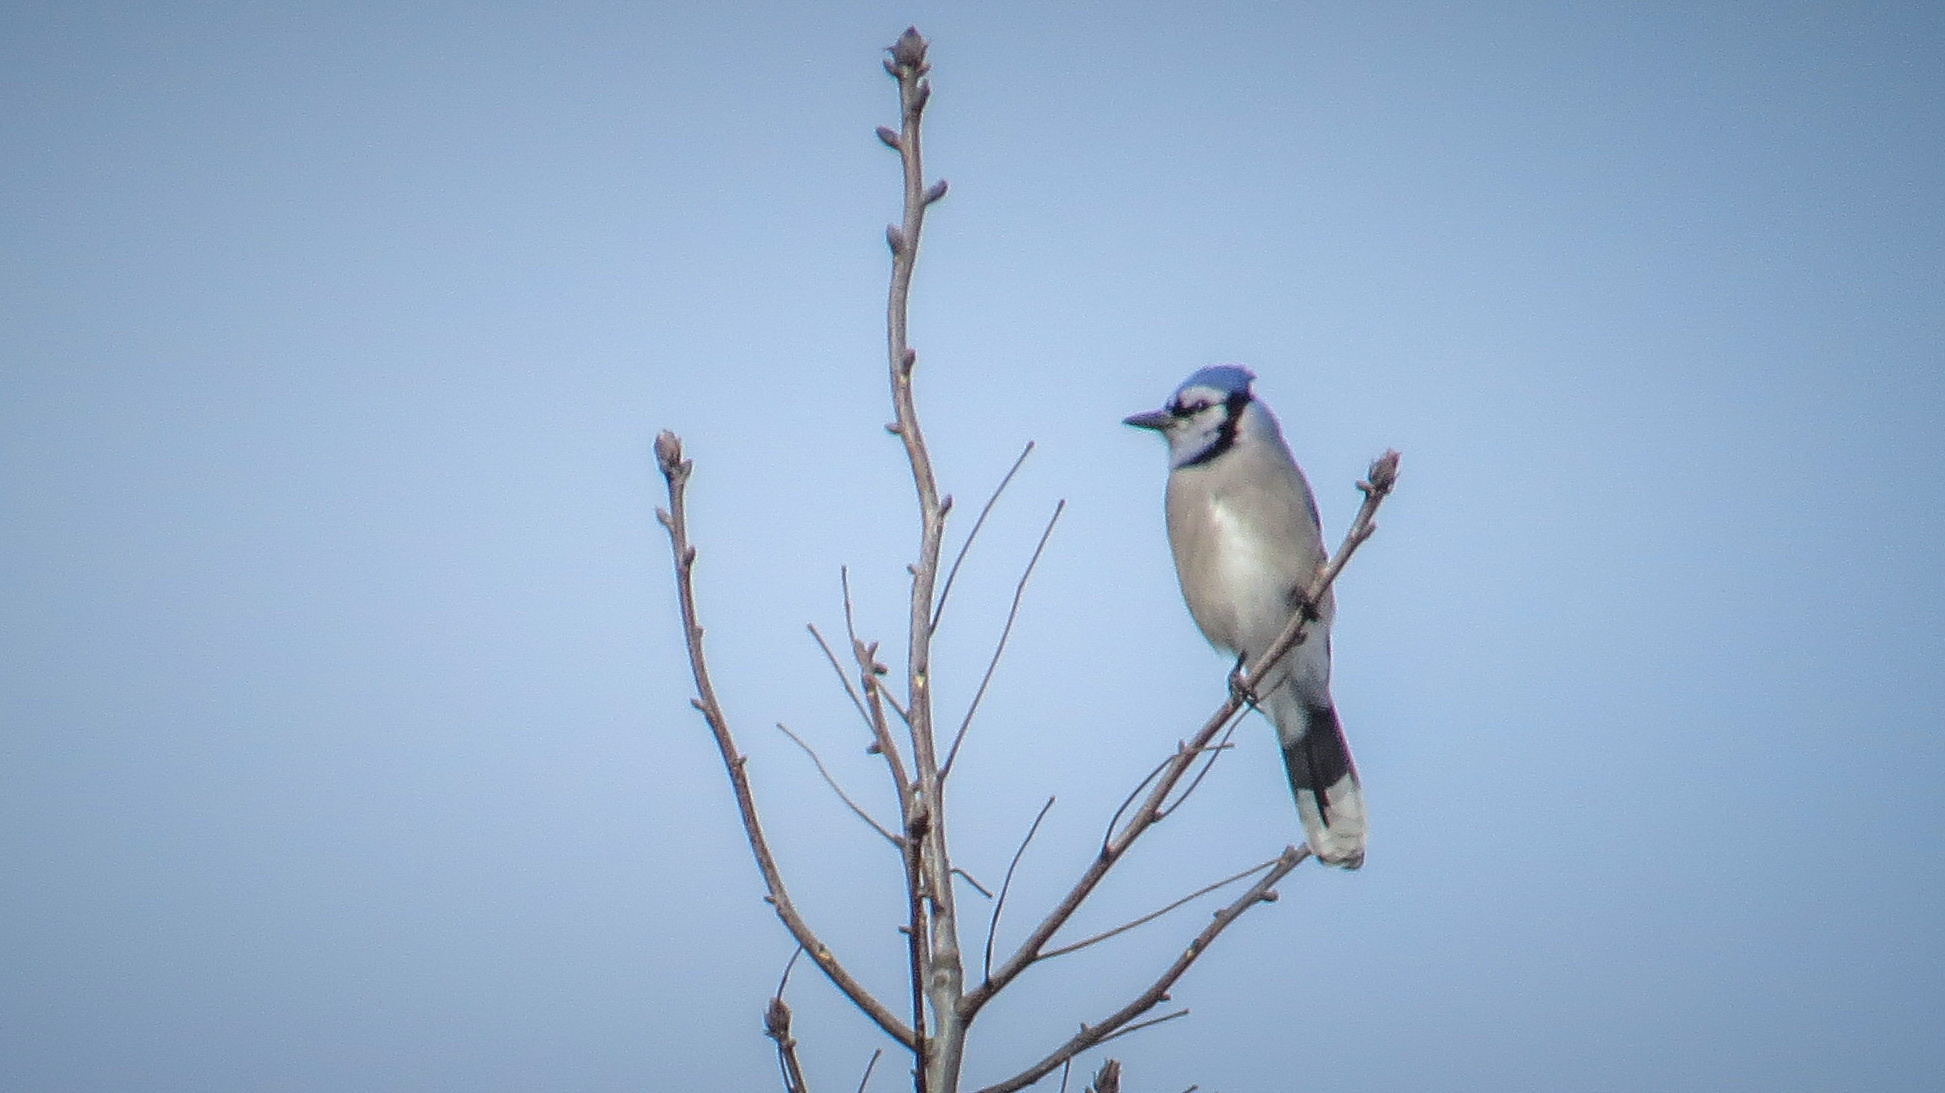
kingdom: Animalia
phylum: Chordata
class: Aves
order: Passeriformes
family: Corvidae
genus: Cyanocitta
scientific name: Cyanocitta cristata
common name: Blue jay
